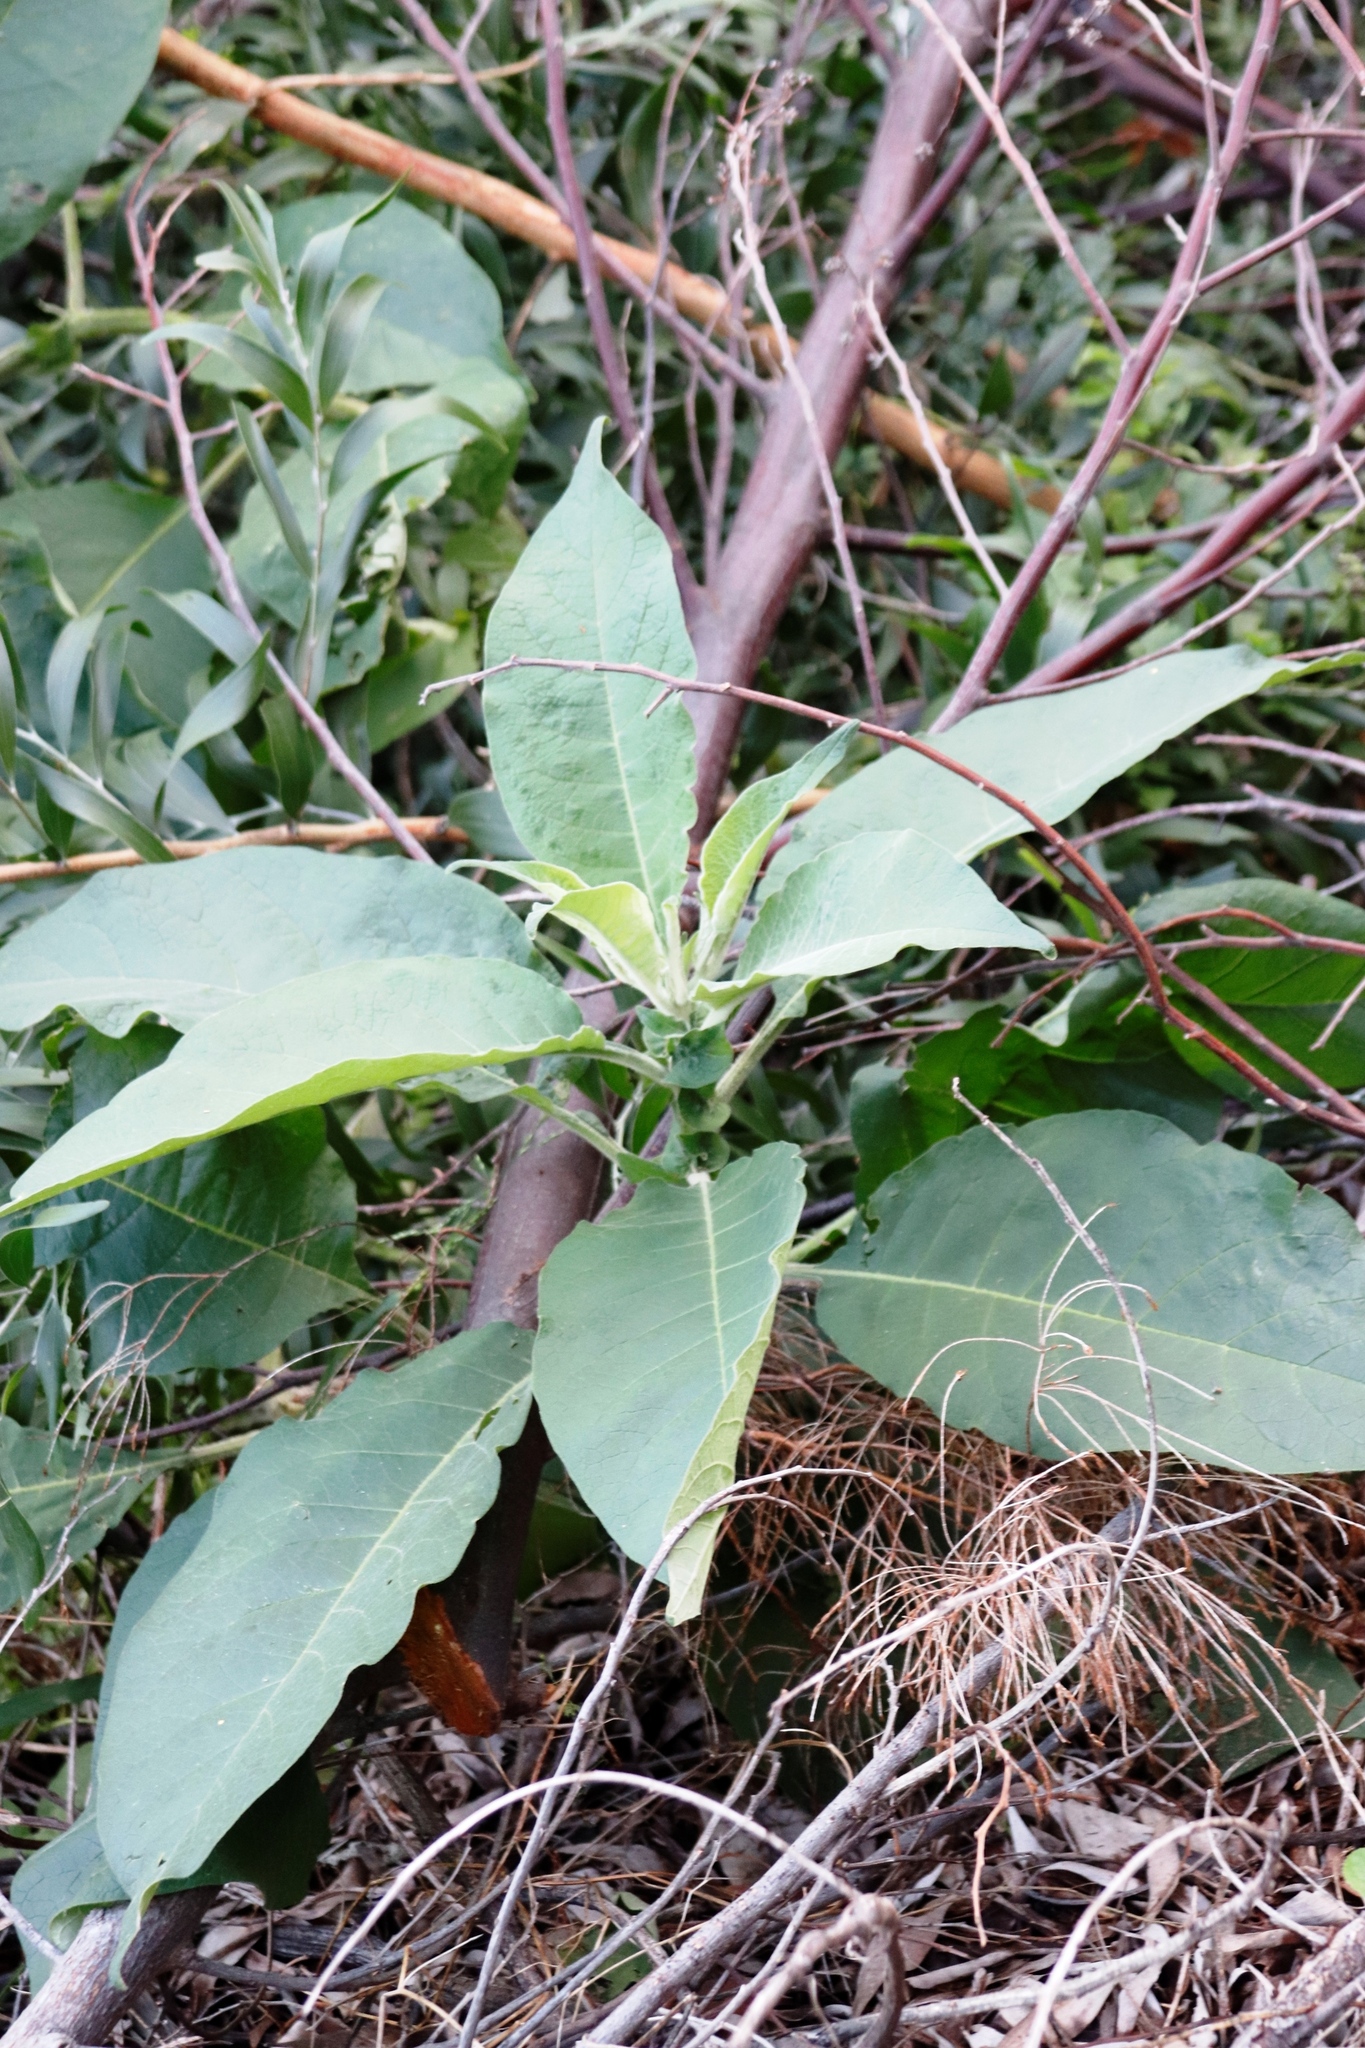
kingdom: Plantae
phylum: Tracheophyta
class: Magnoliopsida
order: Solanales
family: Solanaceae
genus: Solanum
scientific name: Solanum mauritianum
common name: Earleaf nightshade
